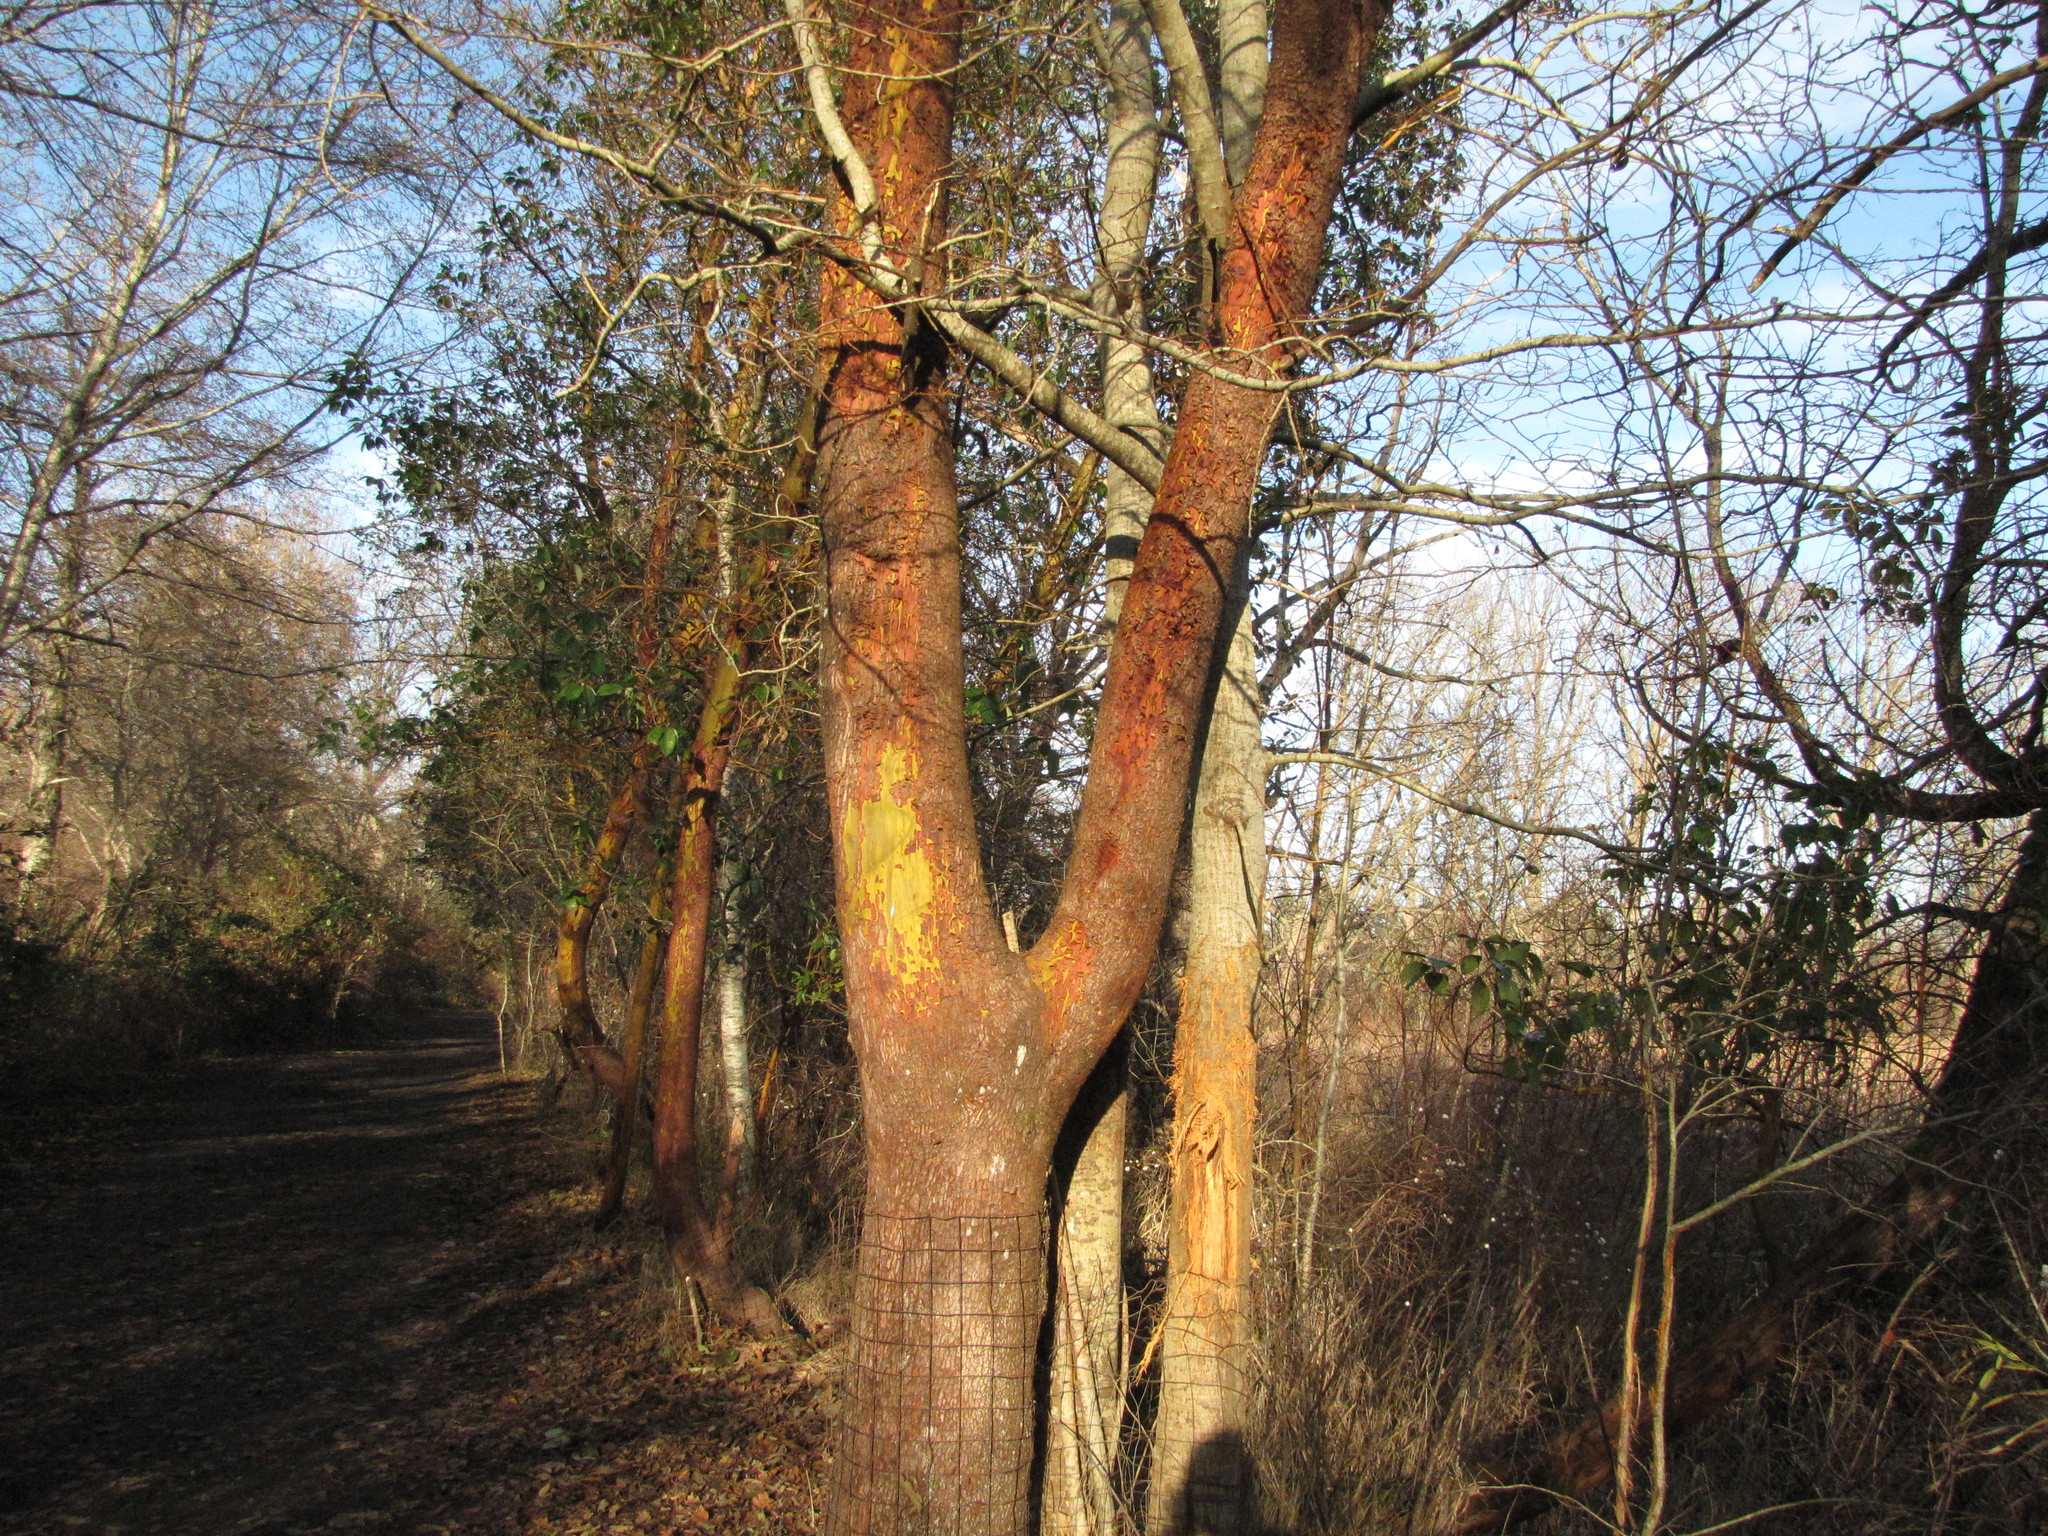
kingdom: Plantae
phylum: Tracheophyta
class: Magnoliopsida
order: Ericales
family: Ericaceae
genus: Arbutus
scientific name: Arbutus menziesii
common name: Pacific madrone
